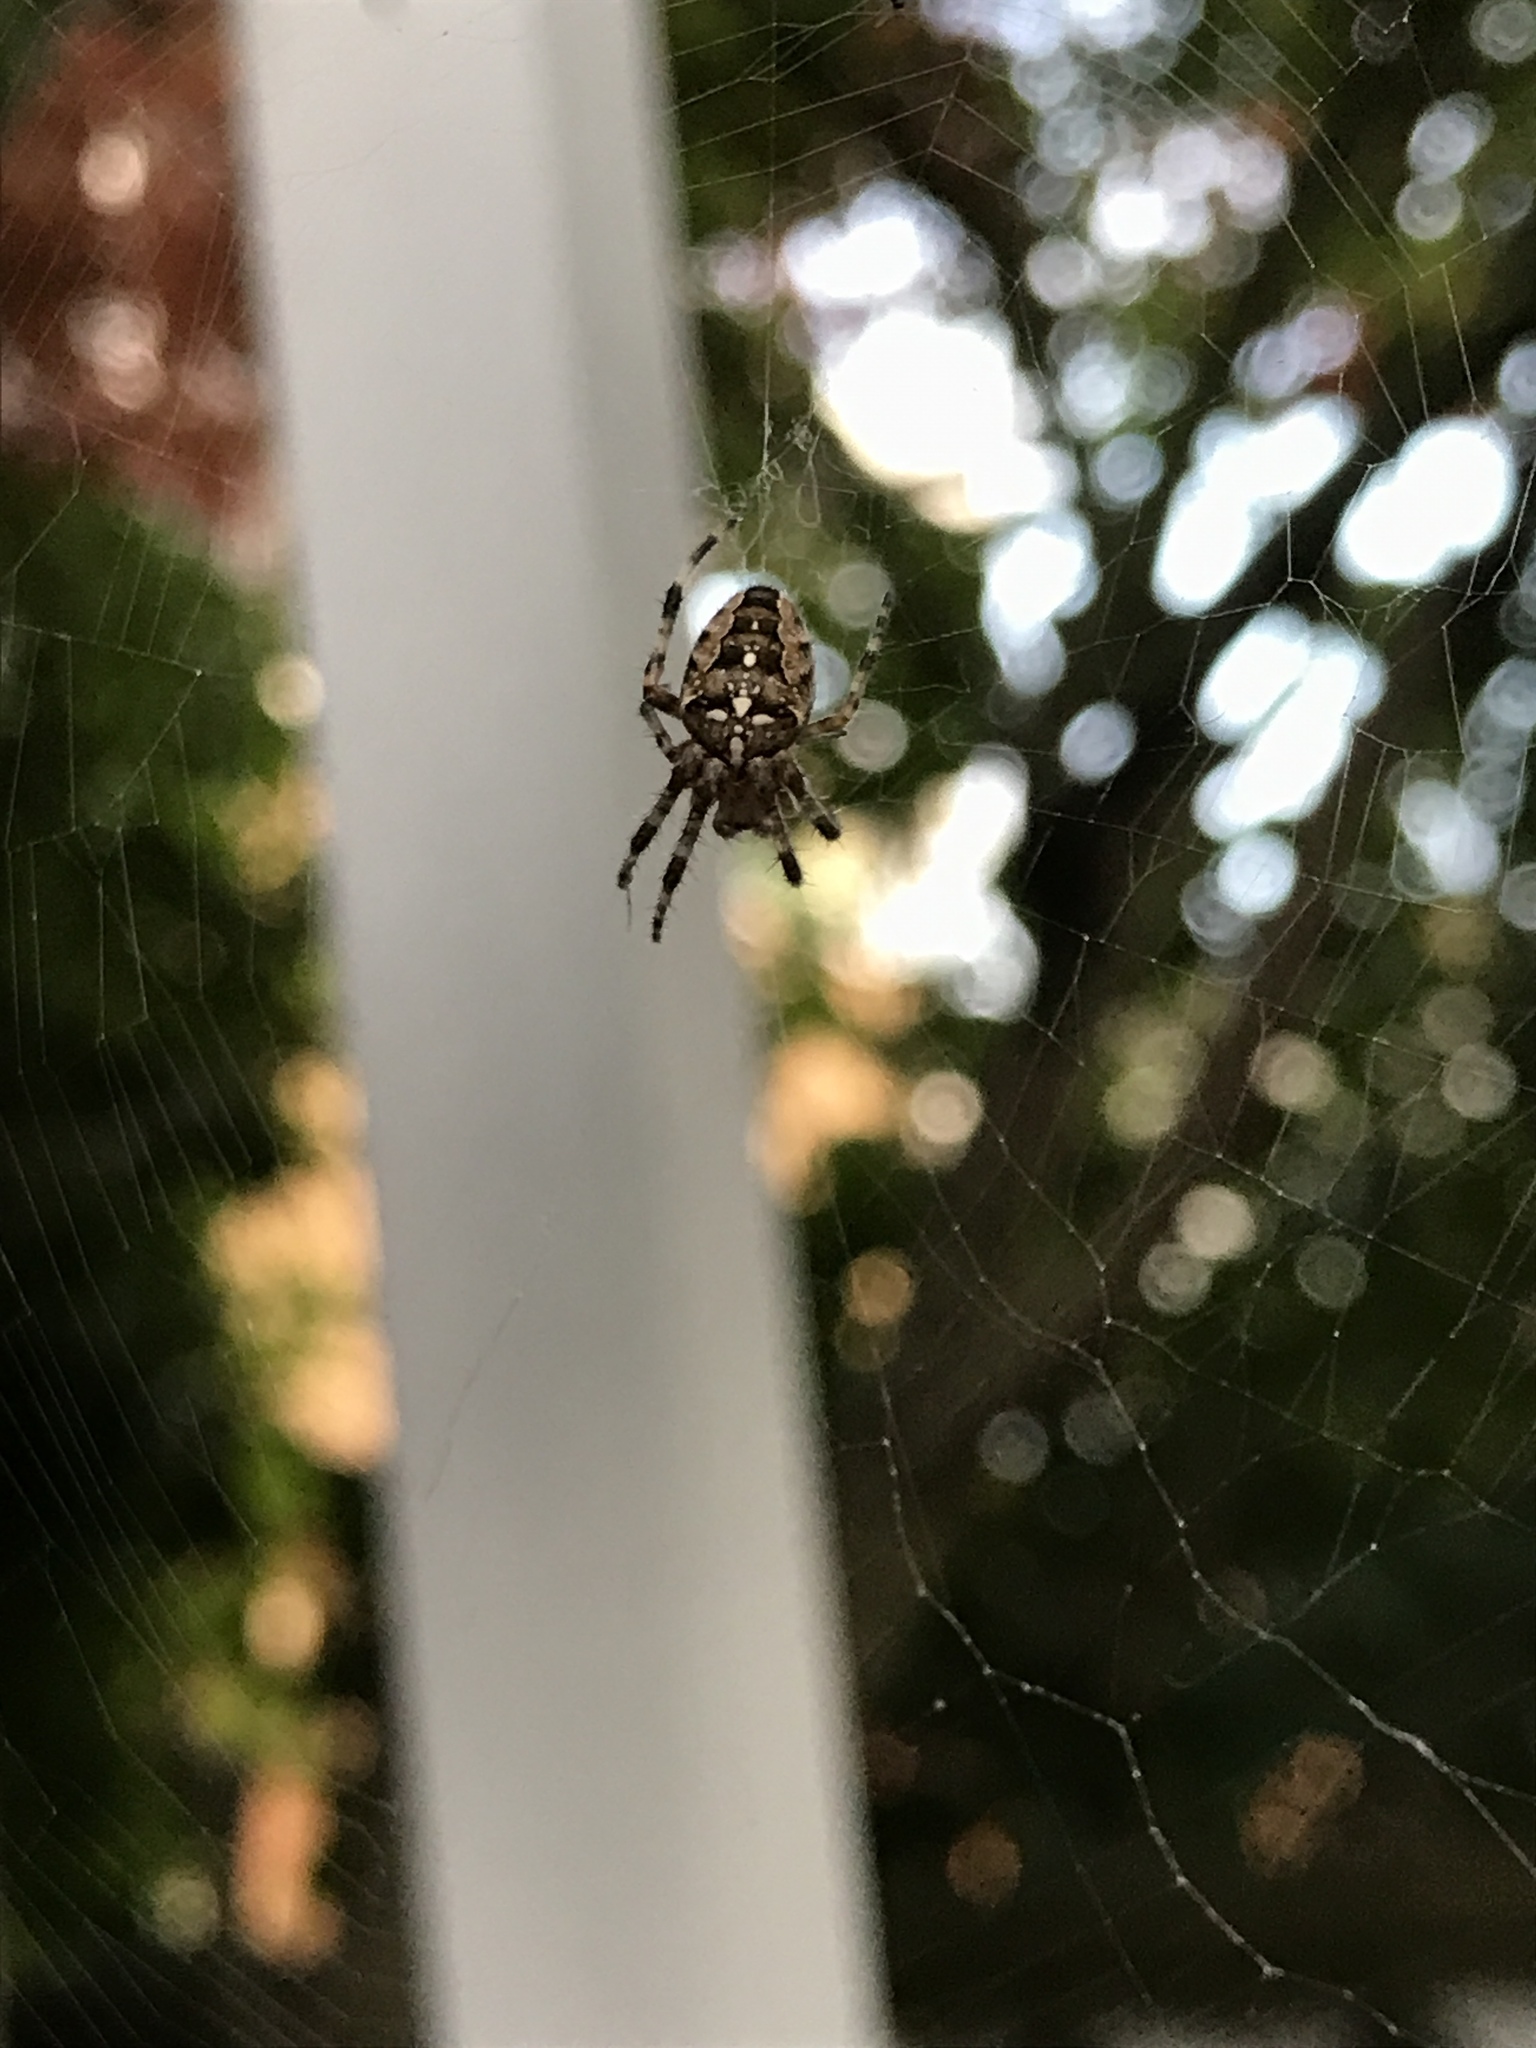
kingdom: Animalia
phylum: Arthropoda
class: Arachnida
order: Araneae
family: Araneidae
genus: Araneus
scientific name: Araneus diadematus
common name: Cross orbweaver
